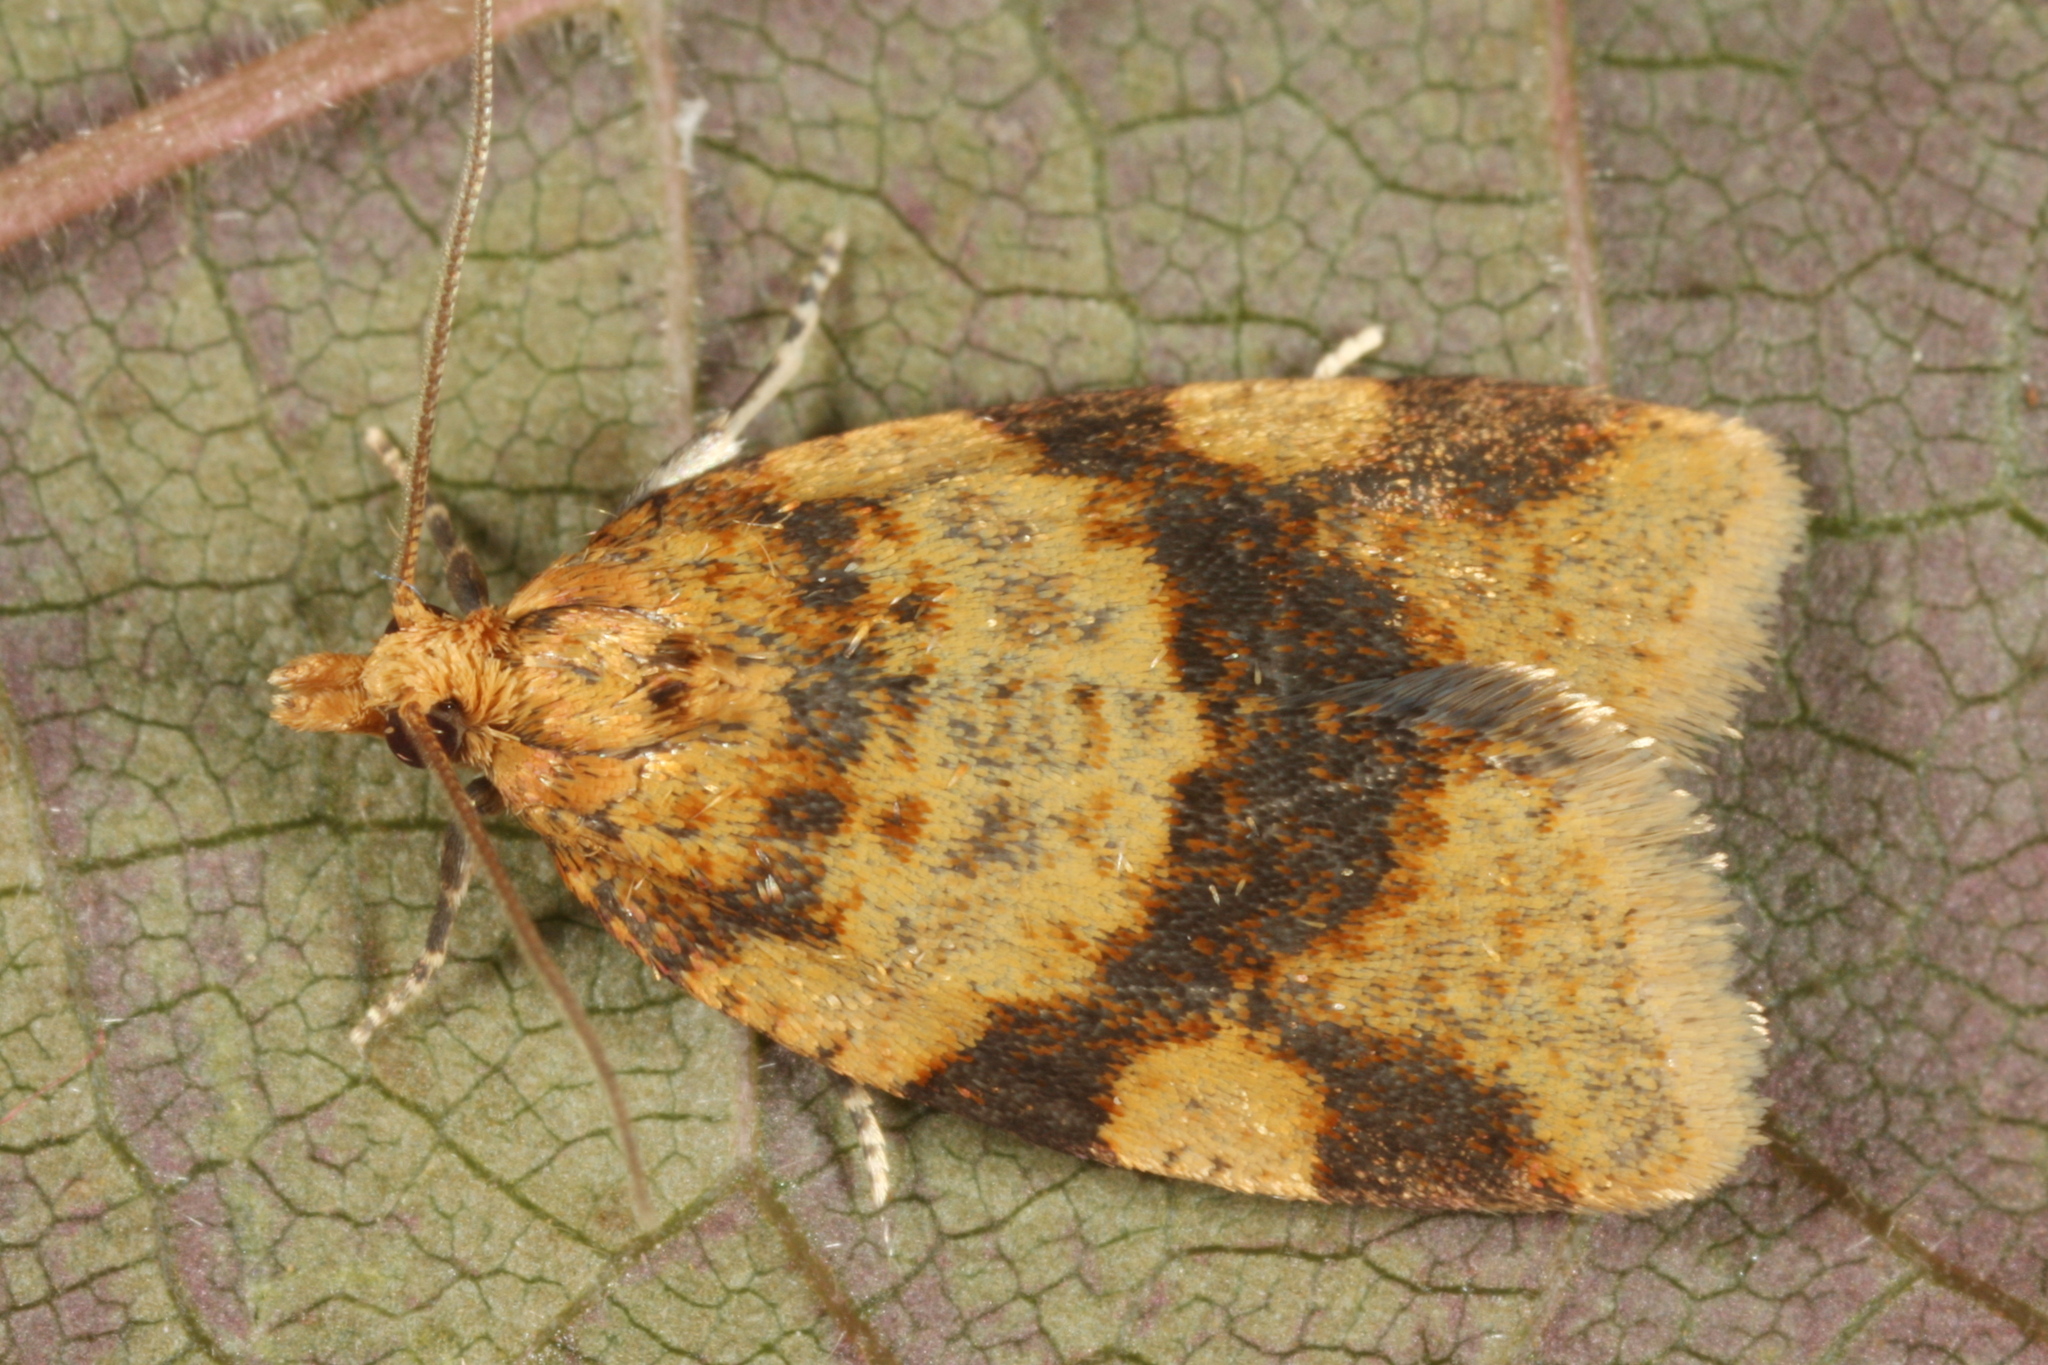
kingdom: Animalia
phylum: Arthropoda
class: Insecta
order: Lepidoptera
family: Tortricidae
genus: Epagoge
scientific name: Epagoge grotiana
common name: Brown-barred twist
